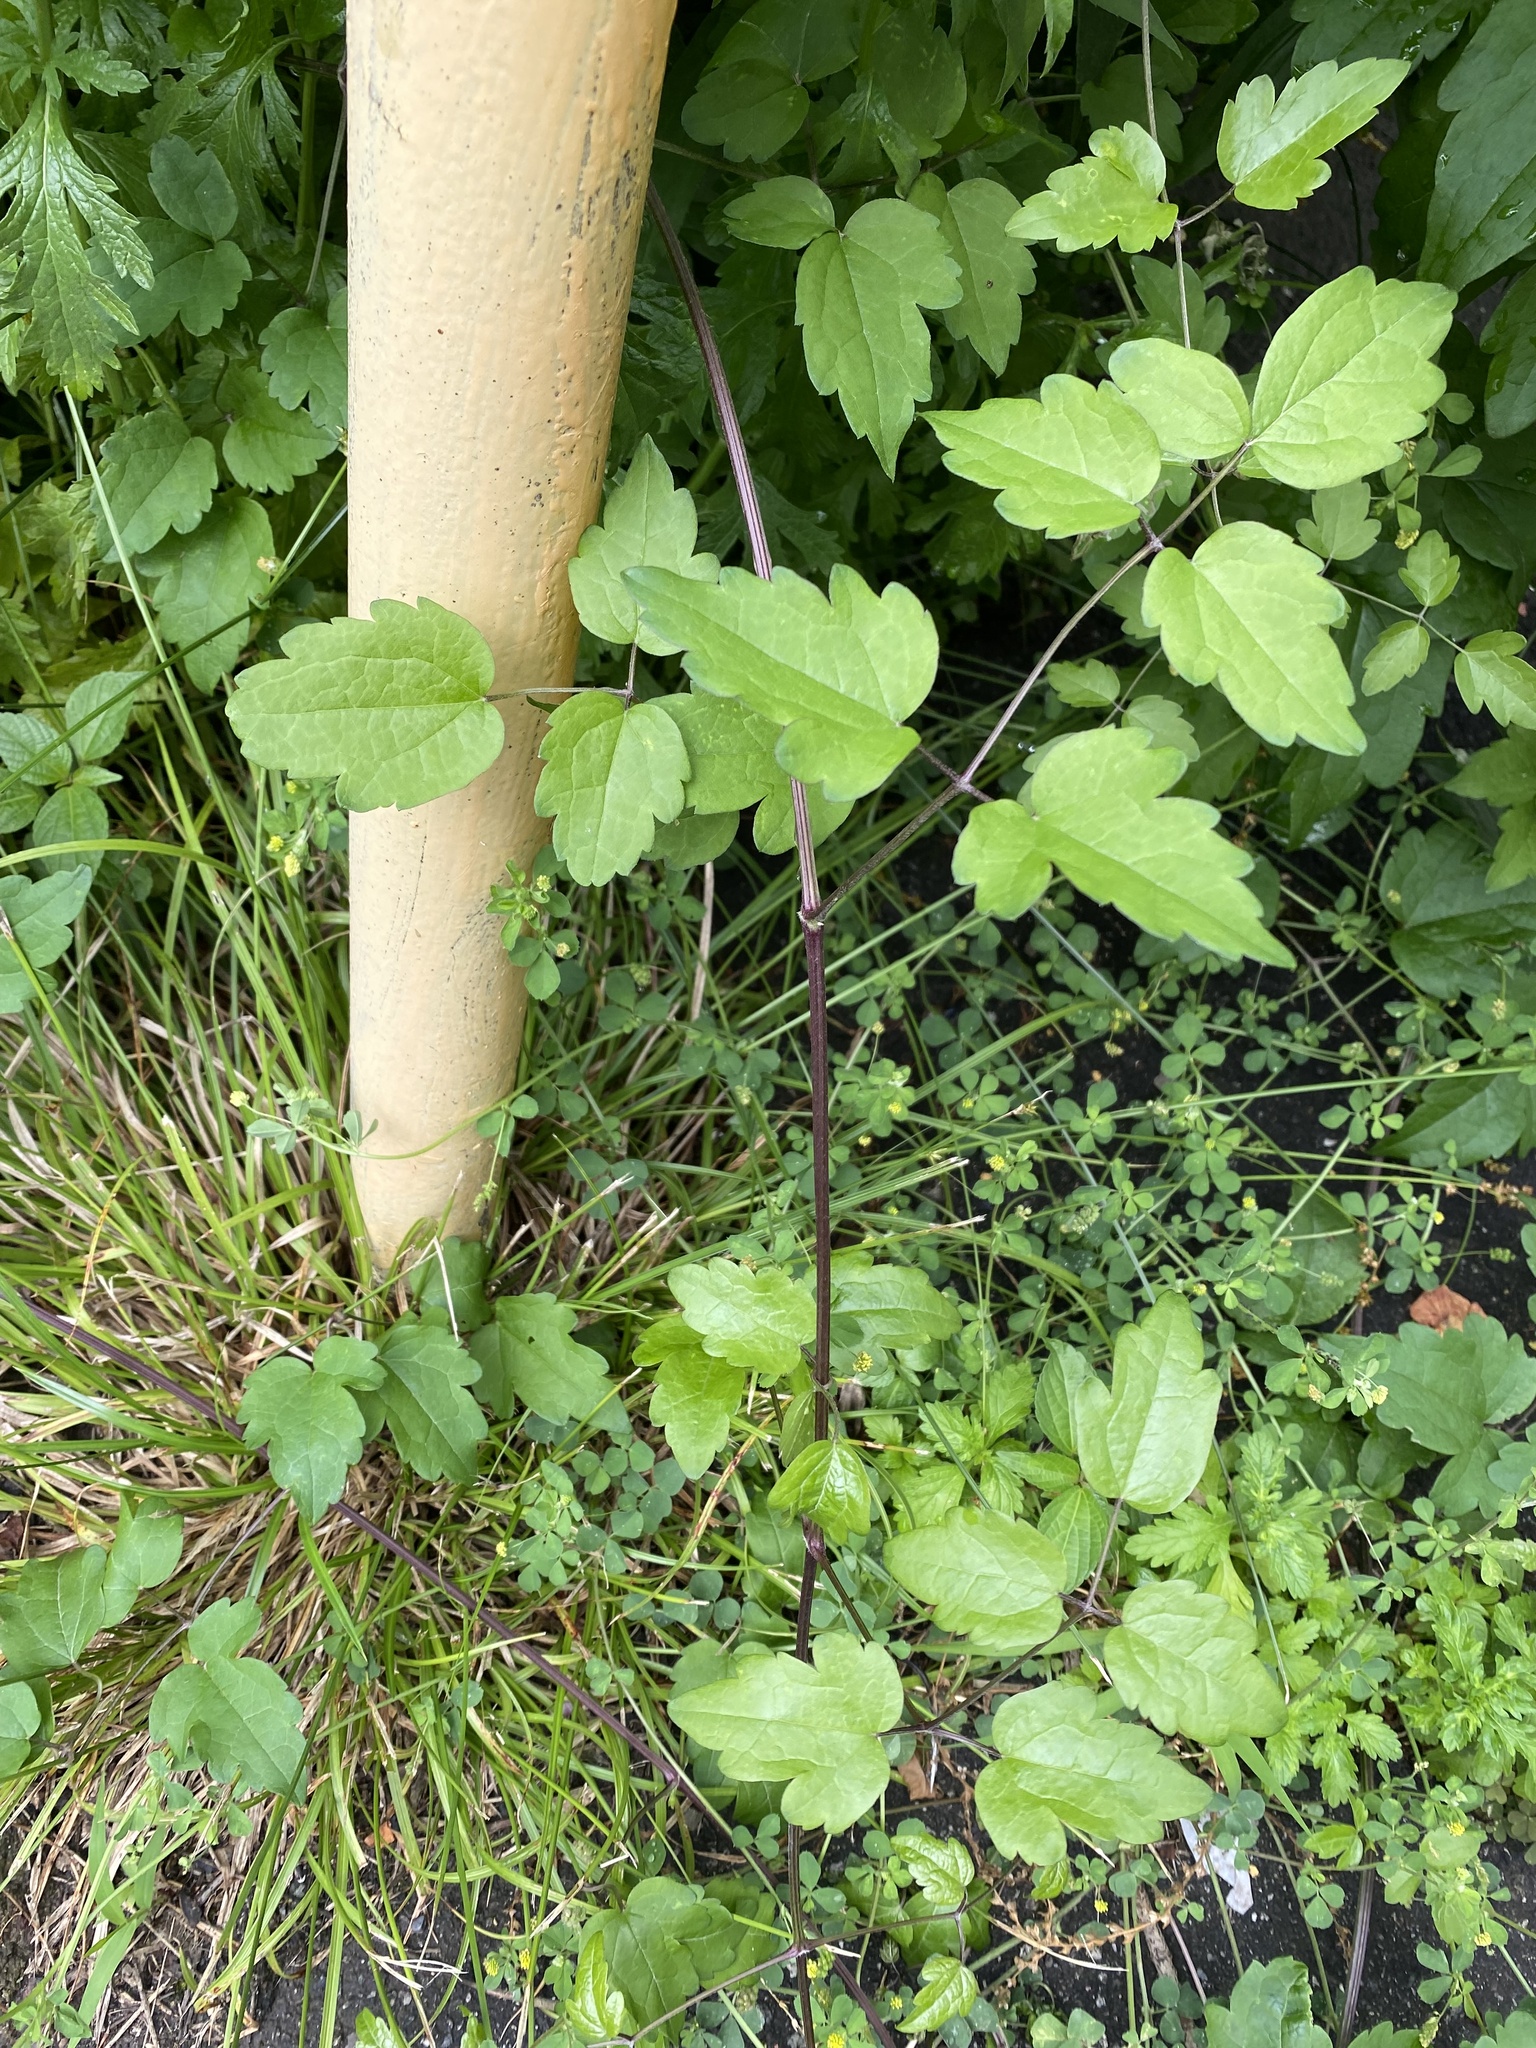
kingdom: Plantae
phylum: Tracheophyta
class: Magnoliopsida
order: Ranunculales
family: Ranunculaceae
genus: Clematis
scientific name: Clematis vitalba
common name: Evergreen clematis
